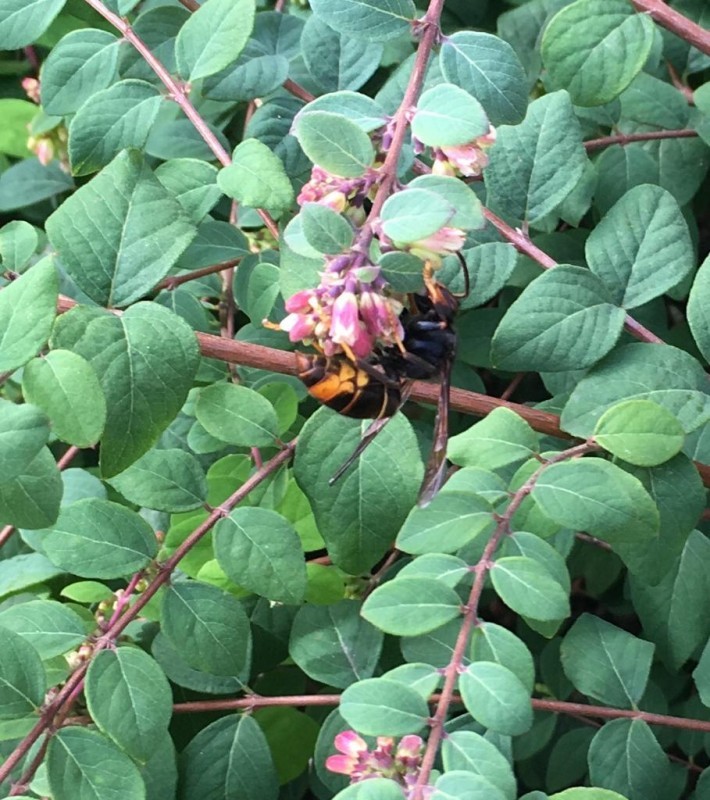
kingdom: Animalia
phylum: Arthropoda
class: Insecta
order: Hymenoptera
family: Vespidae
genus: Vespa
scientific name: Vespa velutina
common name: Asian hornet
